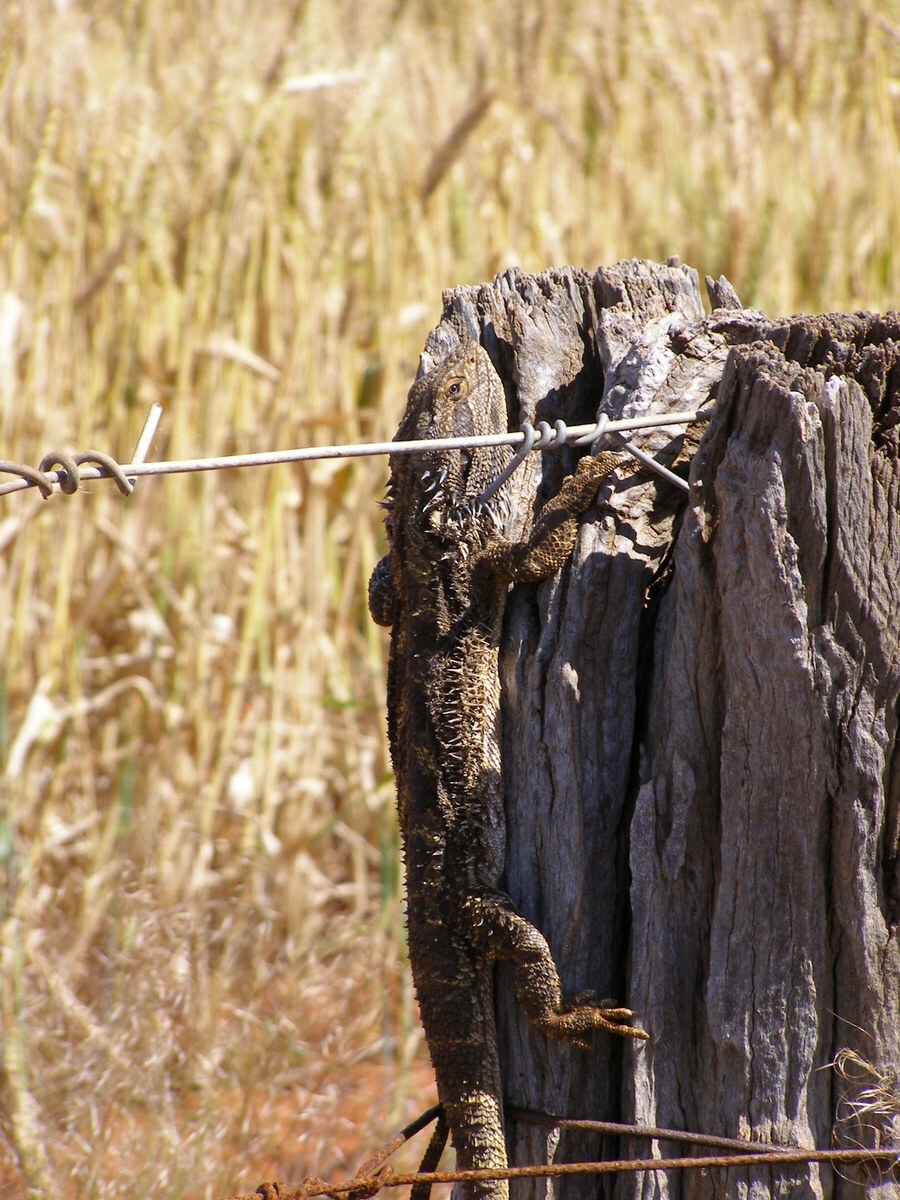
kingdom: Animalia
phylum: Chordata
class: Squamata
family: Agamidae
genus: Pogona
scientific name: Pogona barbata
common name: Bearded dragon
